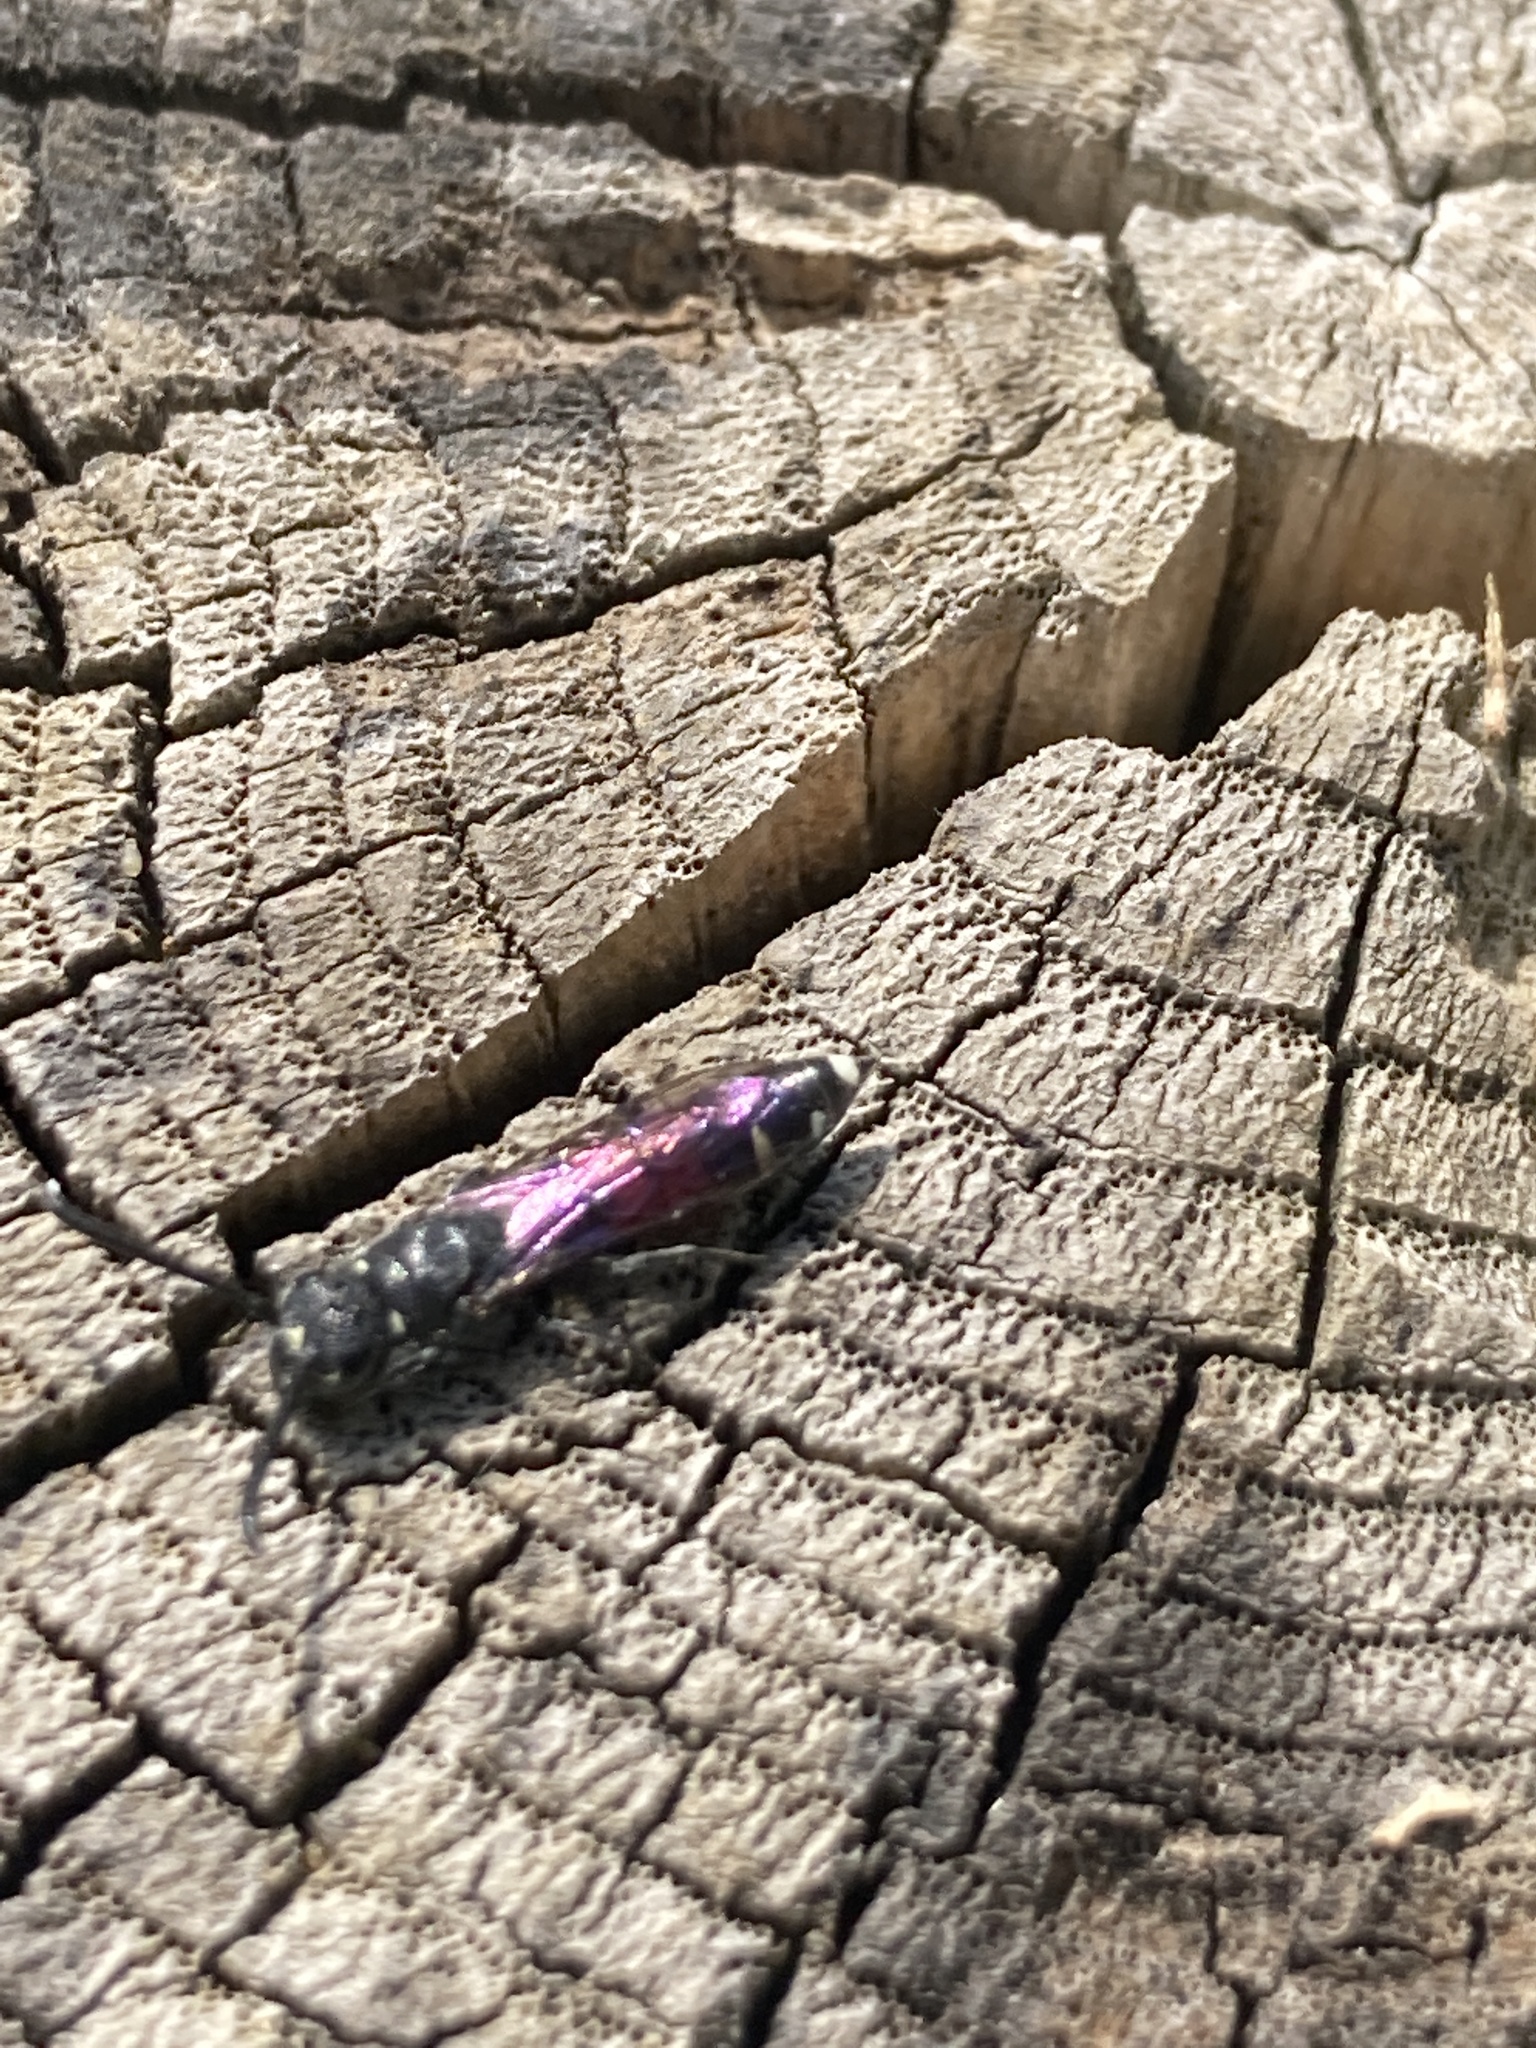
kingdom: Animalia
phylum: Arthropoda
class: Insecta
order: Hymenoptera
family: Sapygidae
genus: Sapyga
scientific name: Sapyga quinquepunctata
